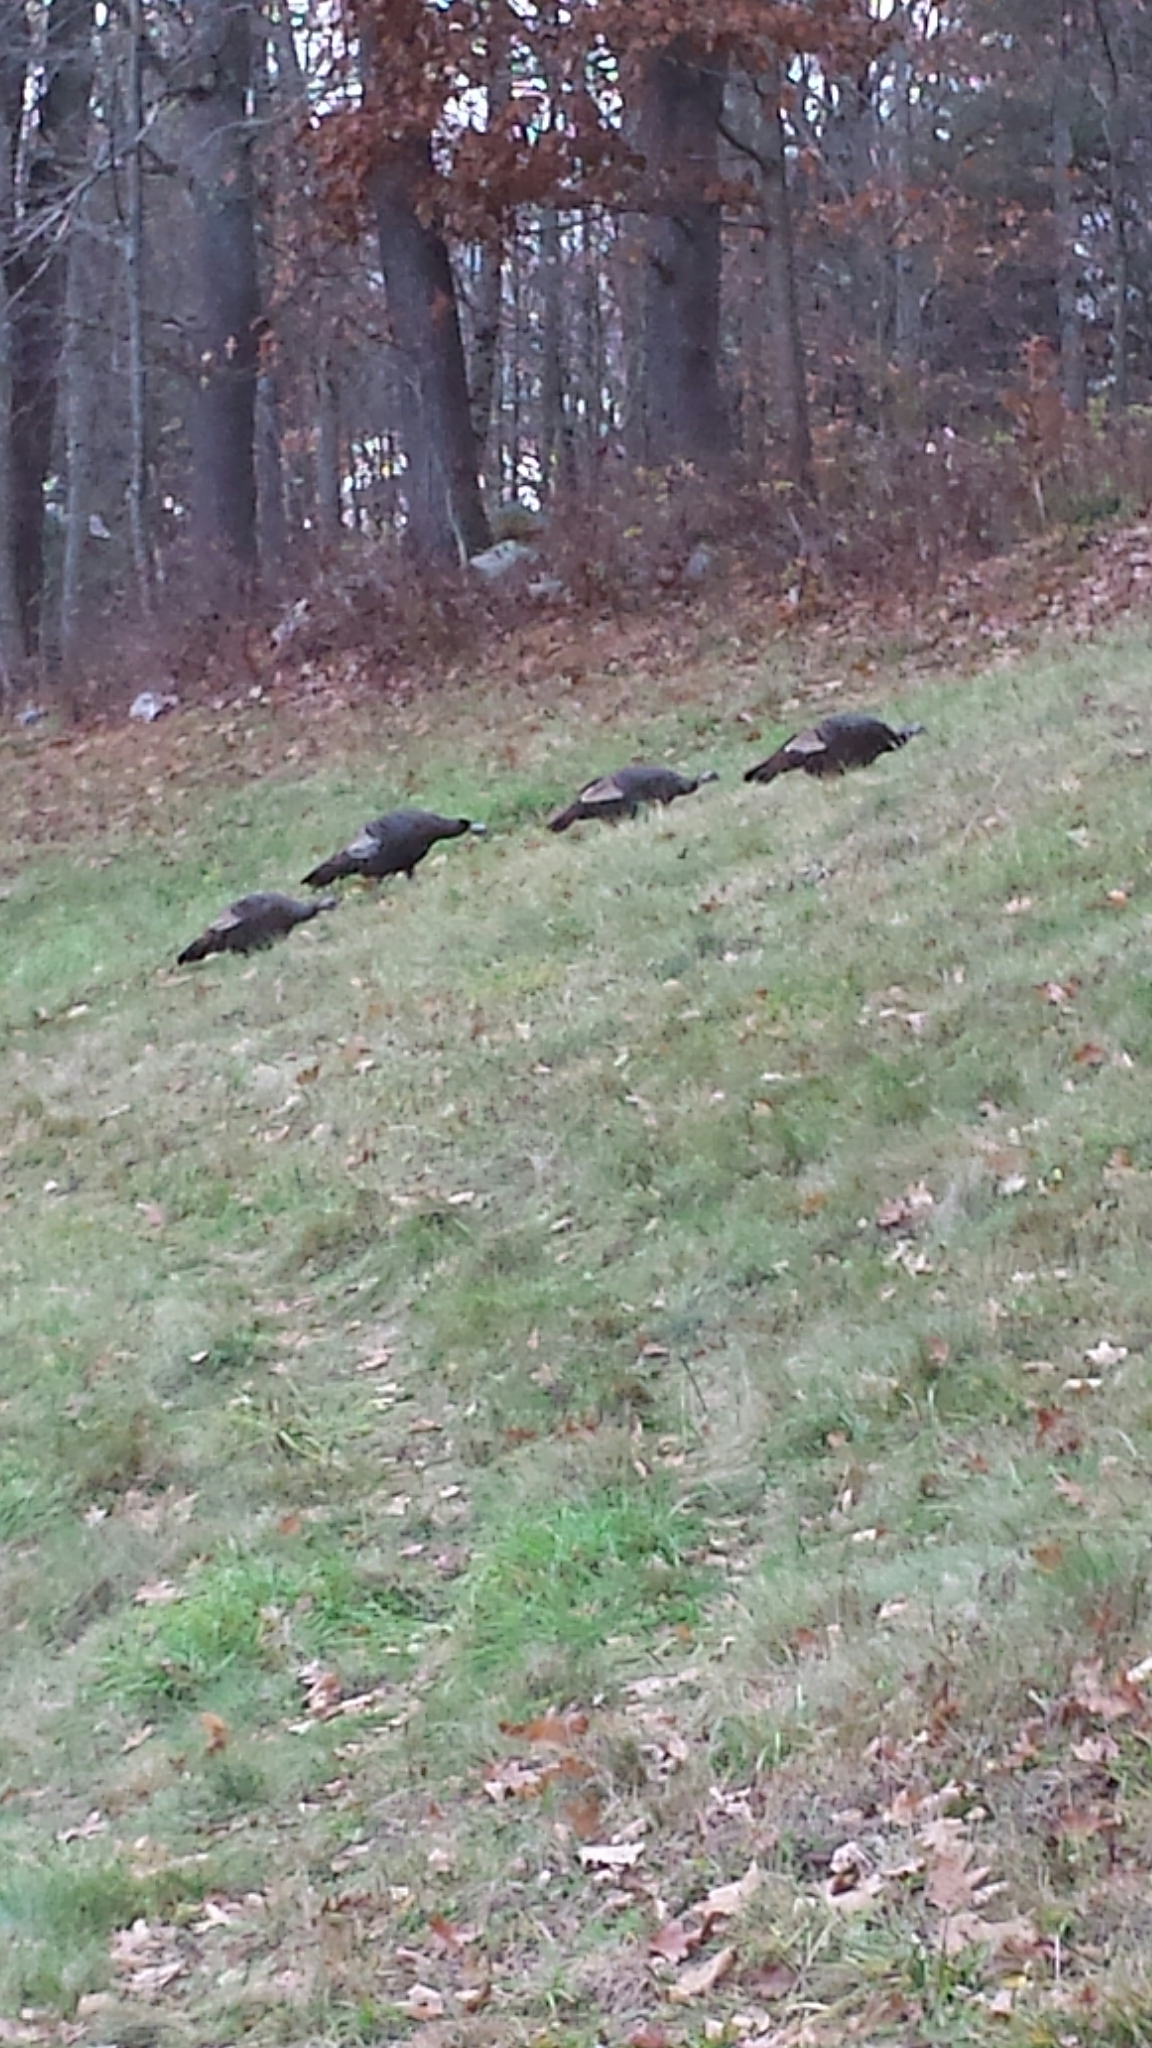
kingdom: Animalia
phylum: Chordata
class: Aves
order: Galliformes
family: Phasianidae
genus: Meleagris
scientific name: Meleagris gallopavo
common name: Wild turkey
